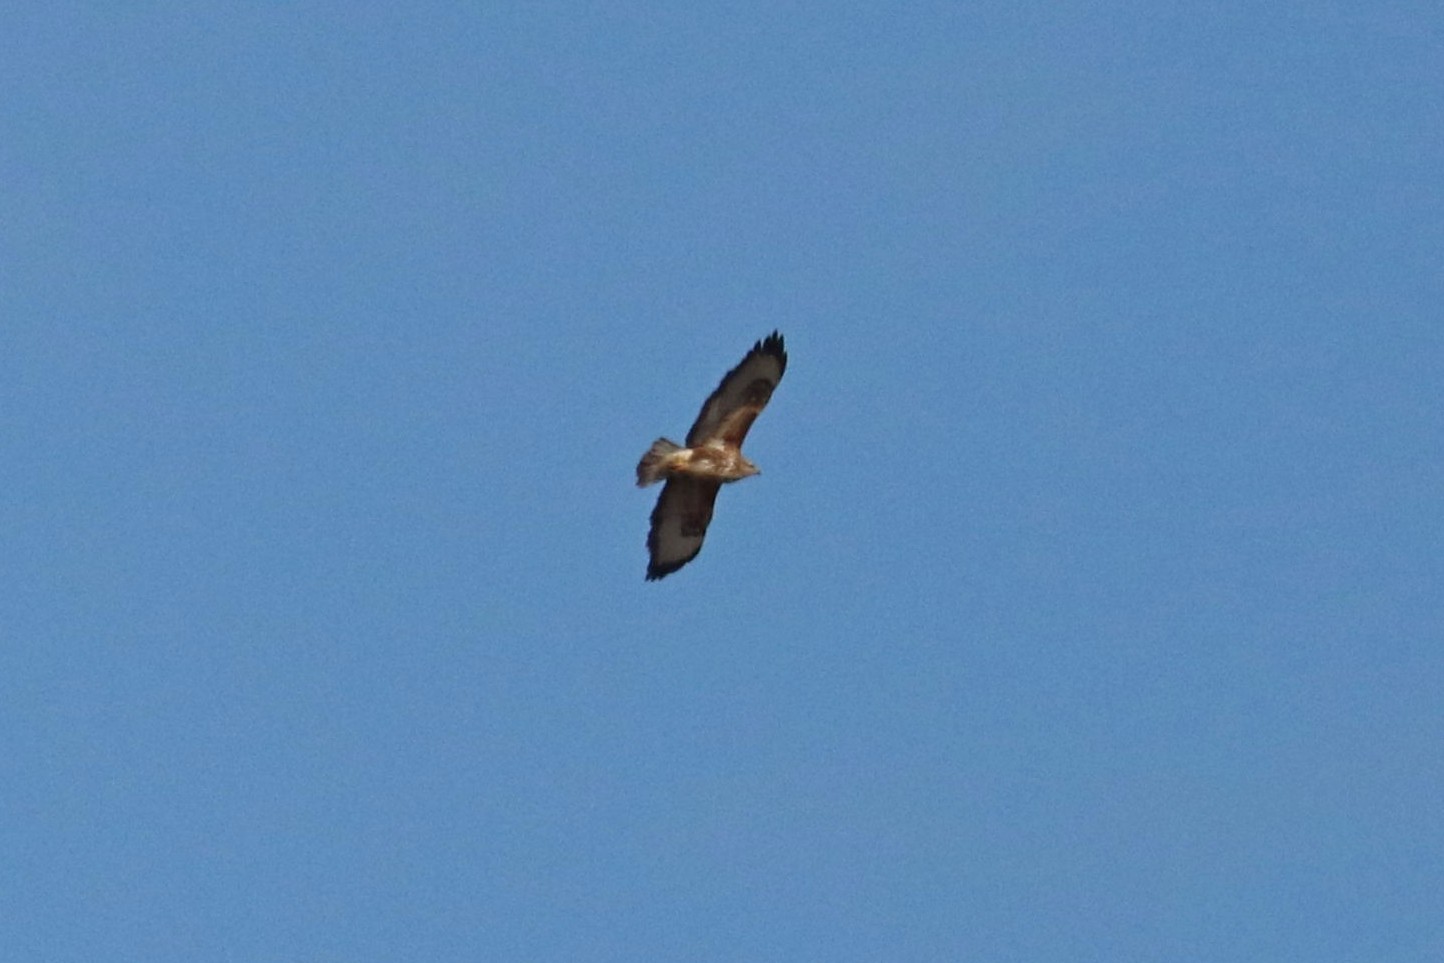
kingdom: Animalia
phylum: Chordata
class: Aves
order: Accipitriformes
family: Accipitridae
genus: Buteo
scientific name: Buteo buteo
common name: Common buzzard
